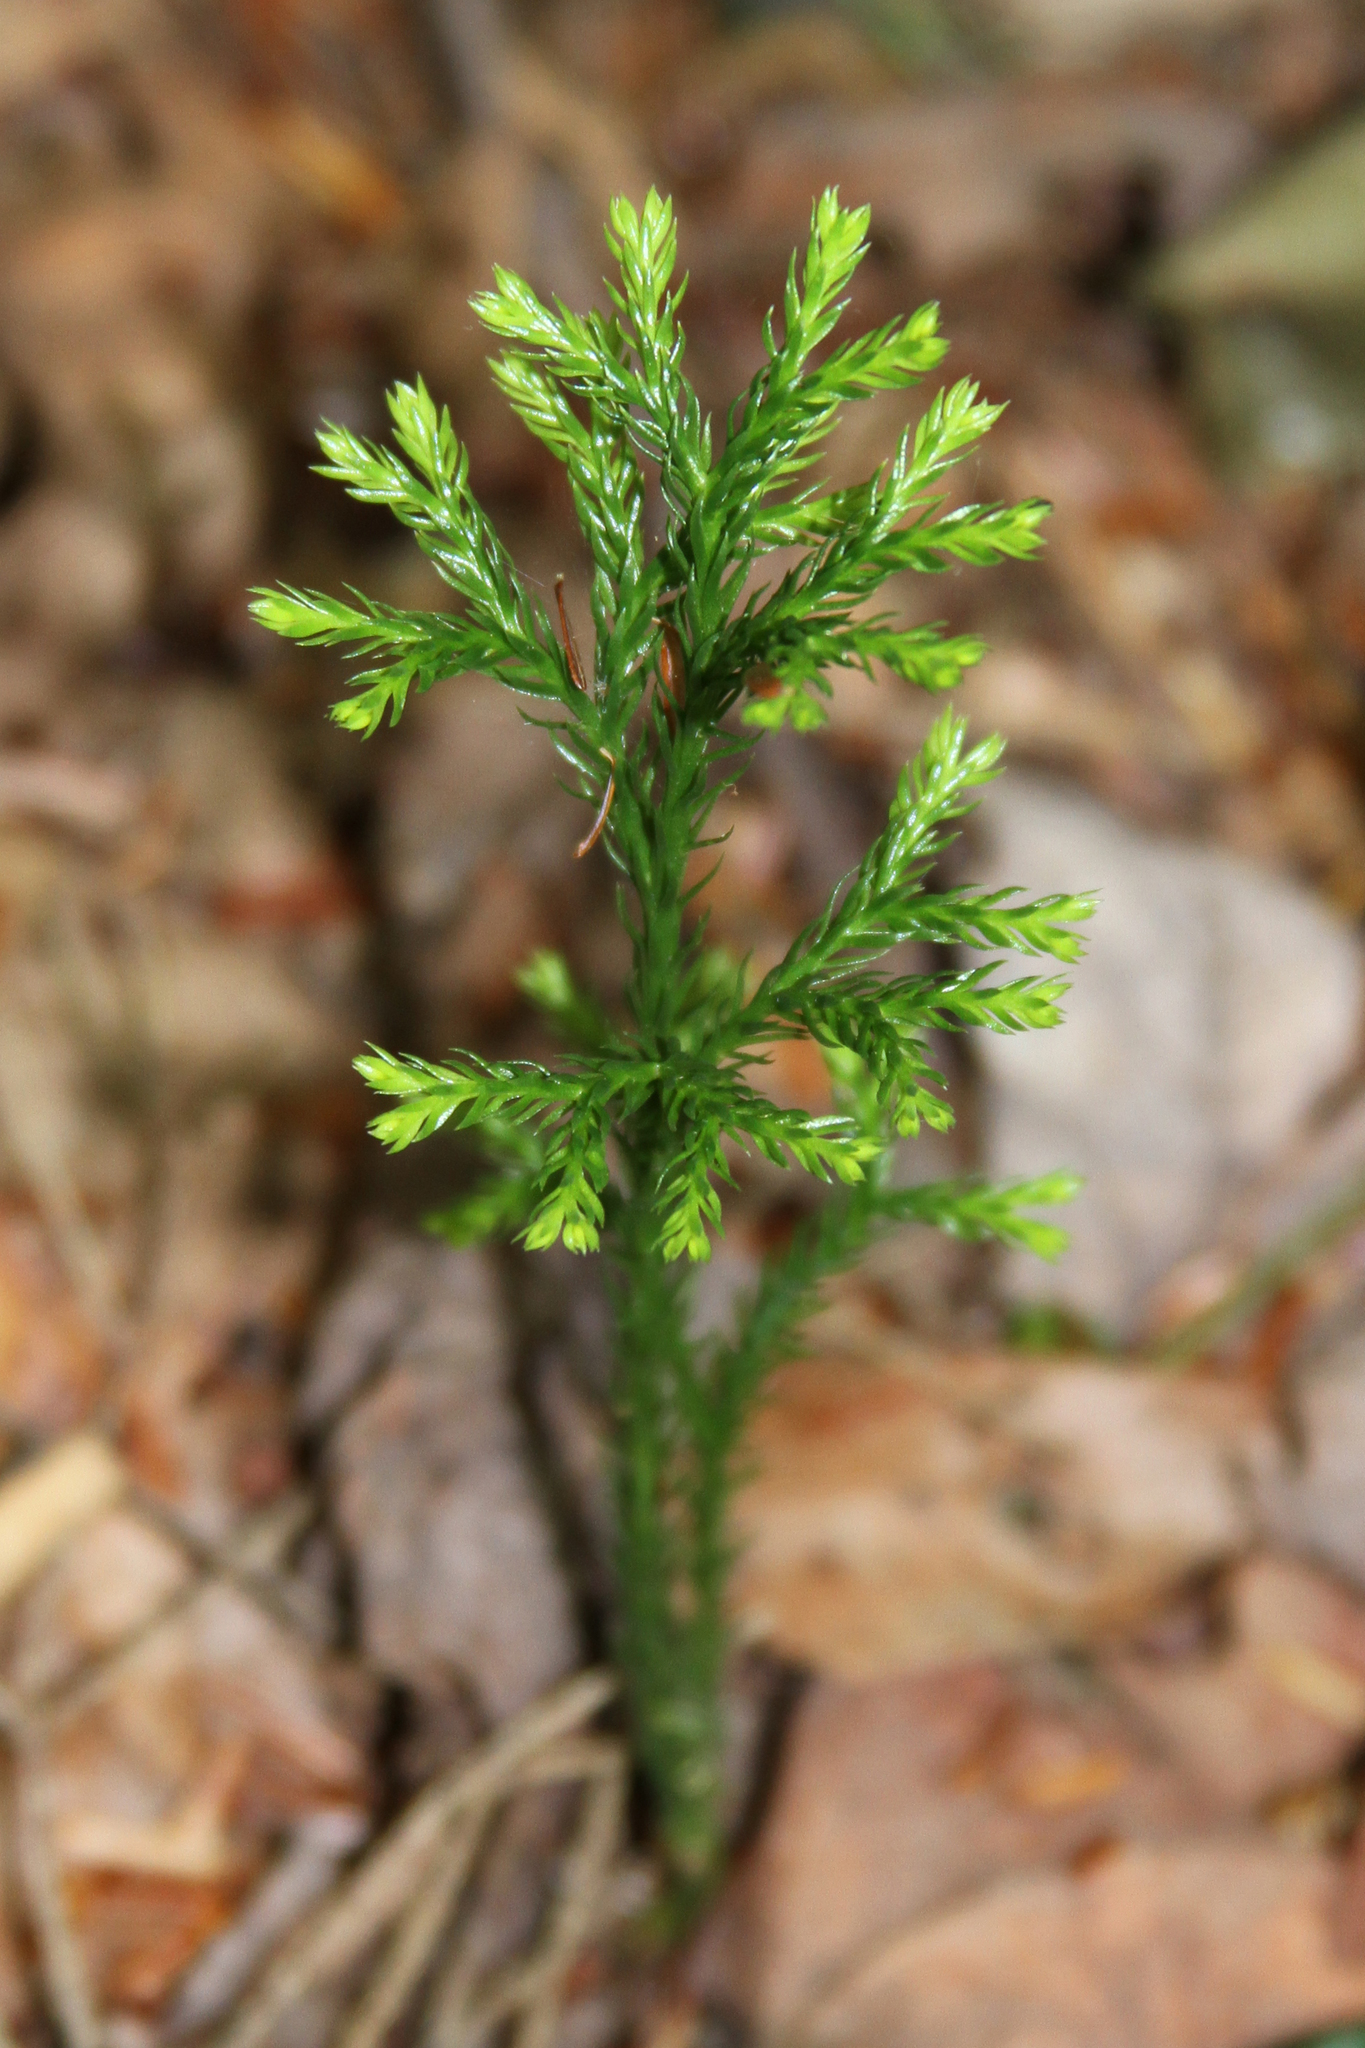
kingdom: Plantae
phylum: Tracheophyta
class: Lycopodiopsida
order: Lycopodiales
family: Lycopodiaceae
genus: Dendrolycopodium
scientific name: Dendrolycopodium dendroideum
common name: Northern tree-clubmoss
